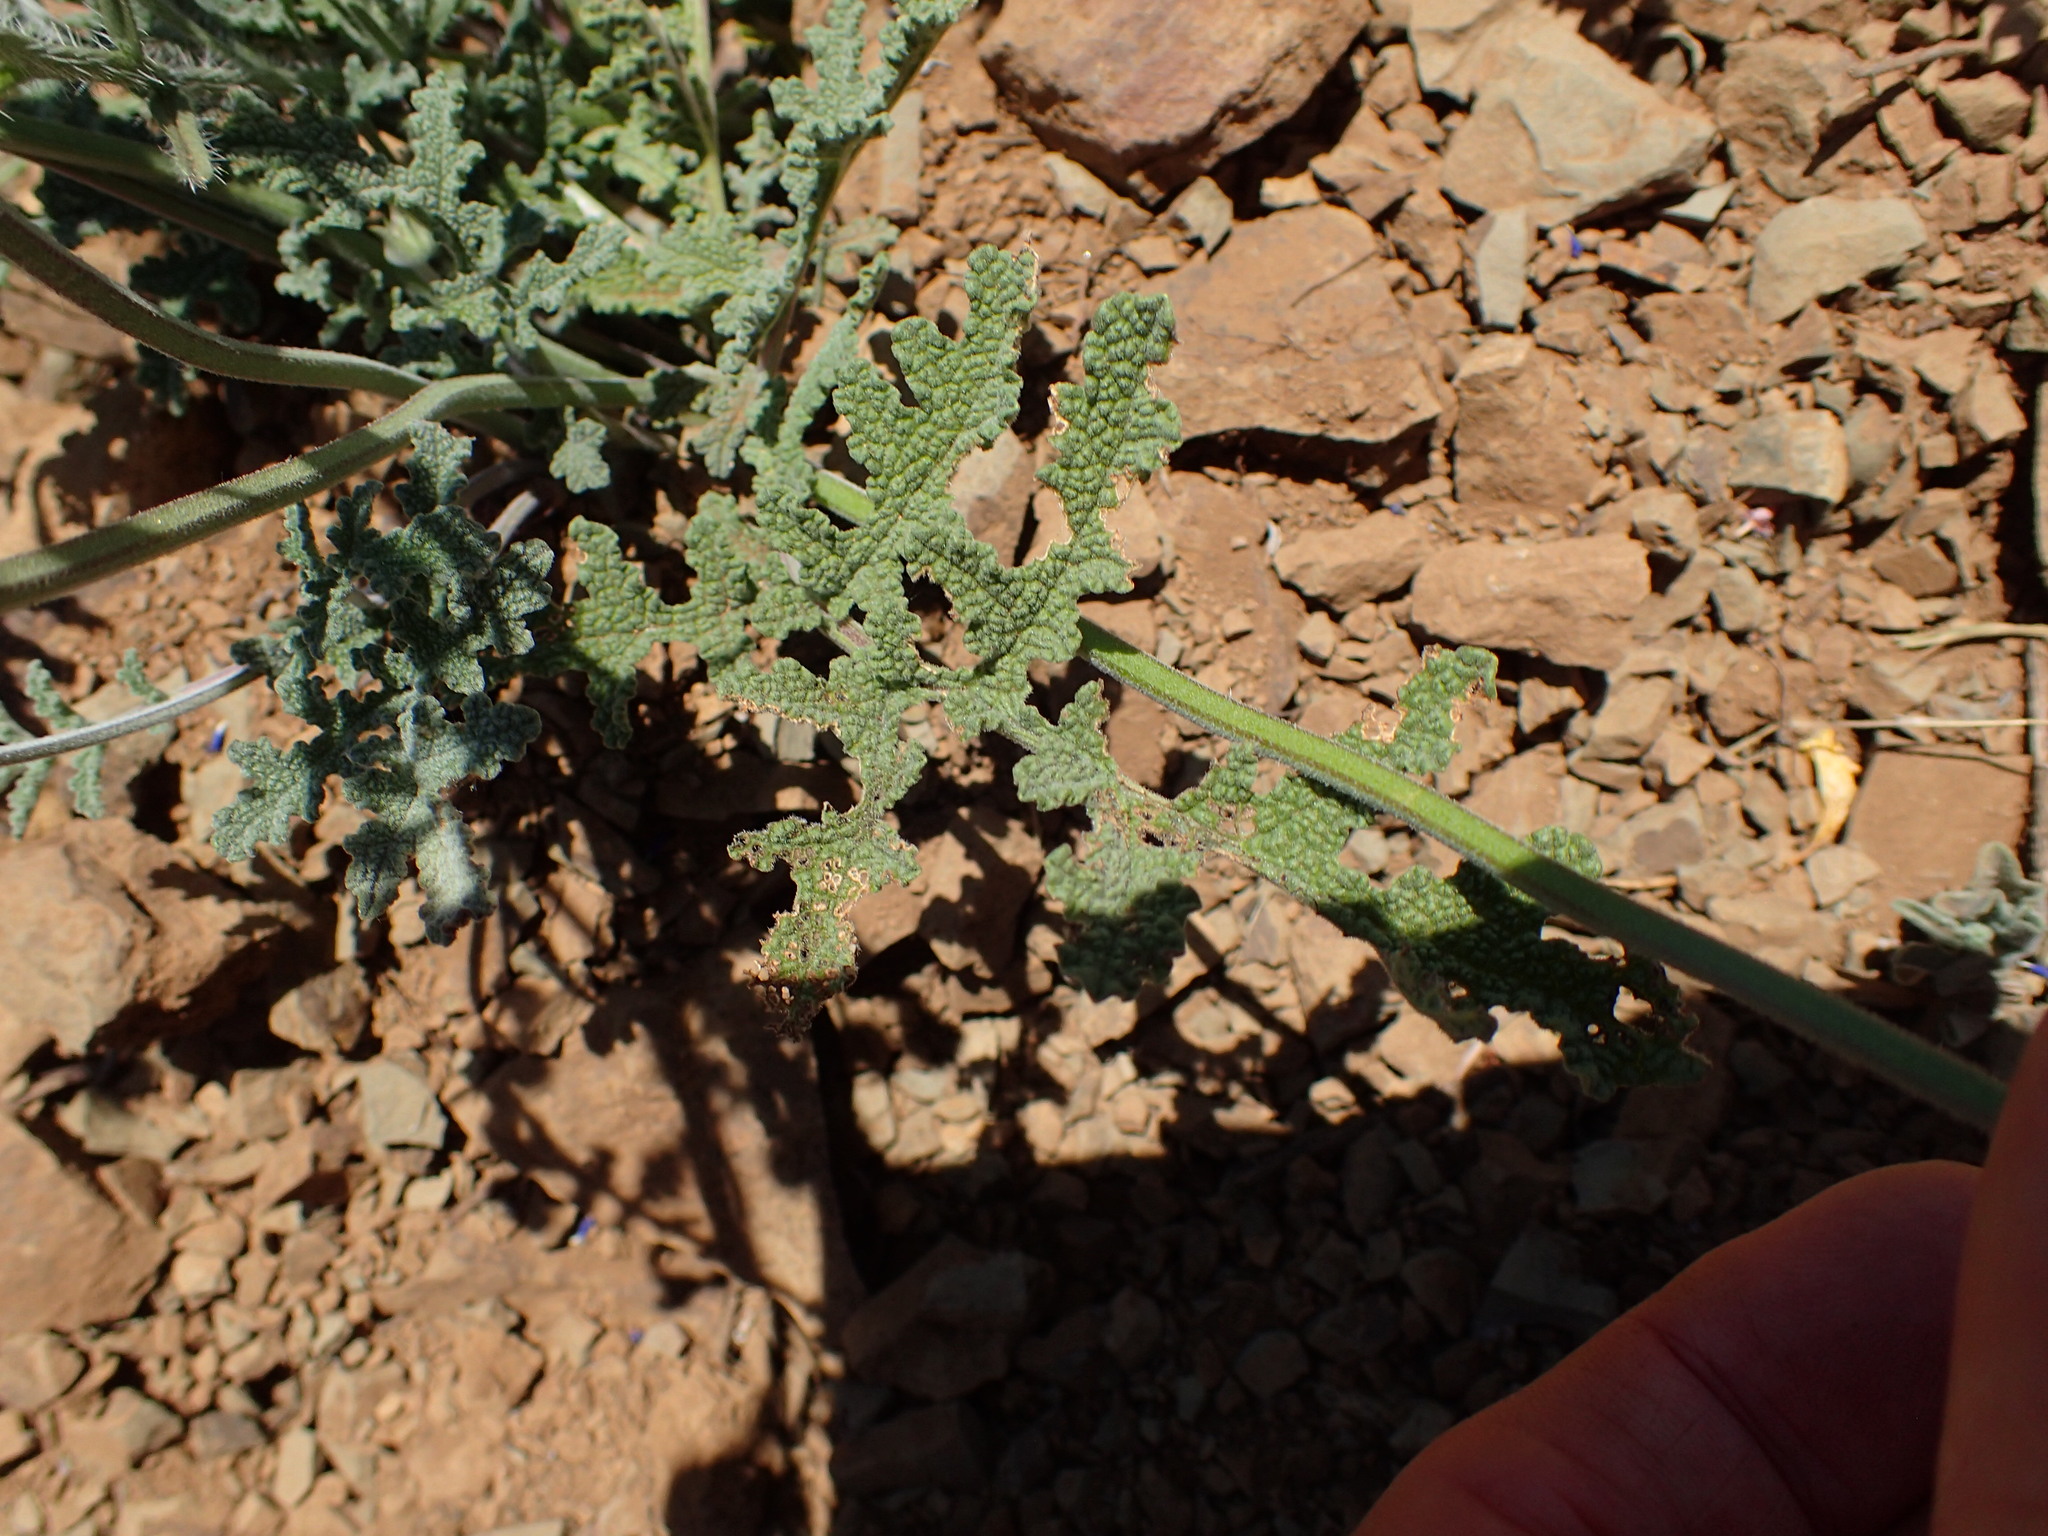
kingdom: Plantae
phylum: Tracheophyta
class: Magnoliopsida
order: Lamiales
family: Lamiaceae
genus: Salvia
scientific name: Salvia columbariae
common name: Chia
